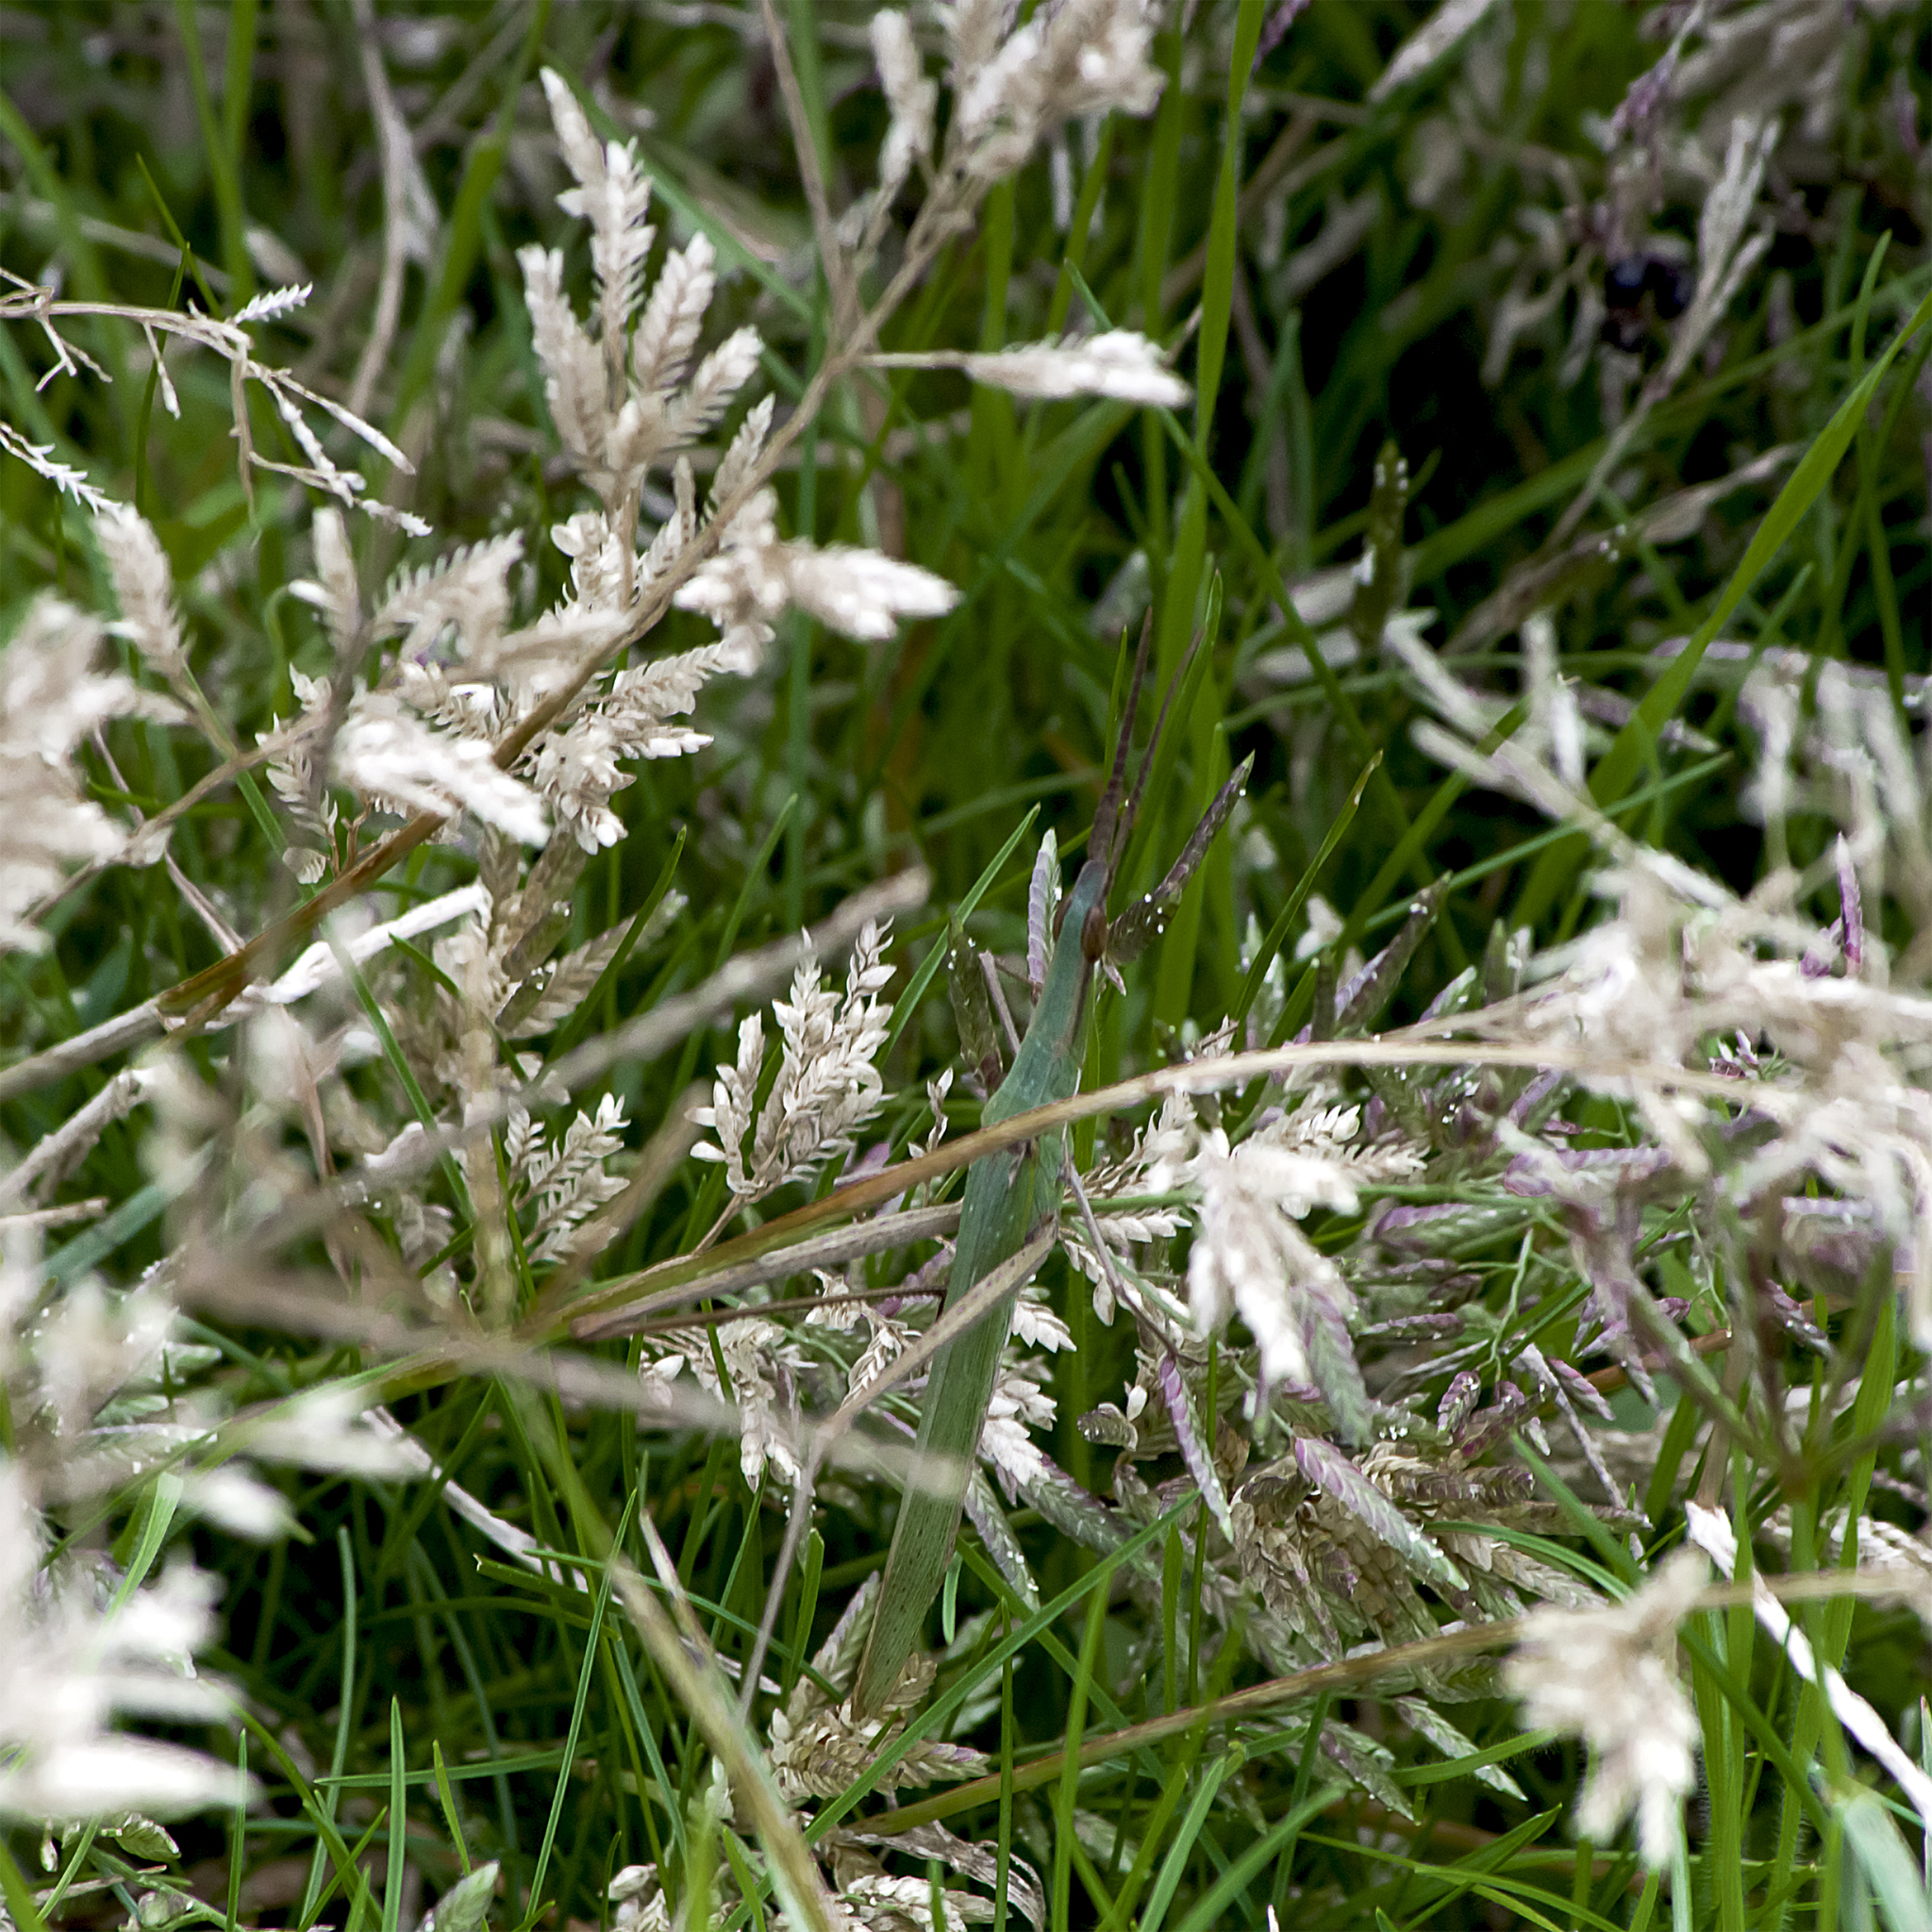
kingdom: Animalia
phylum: Arthropoda
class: Insecta
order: Orthoptera
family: Acrididae
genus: Acrida
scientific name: Acrida ungarica
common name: Common cone-headed grasshopper
